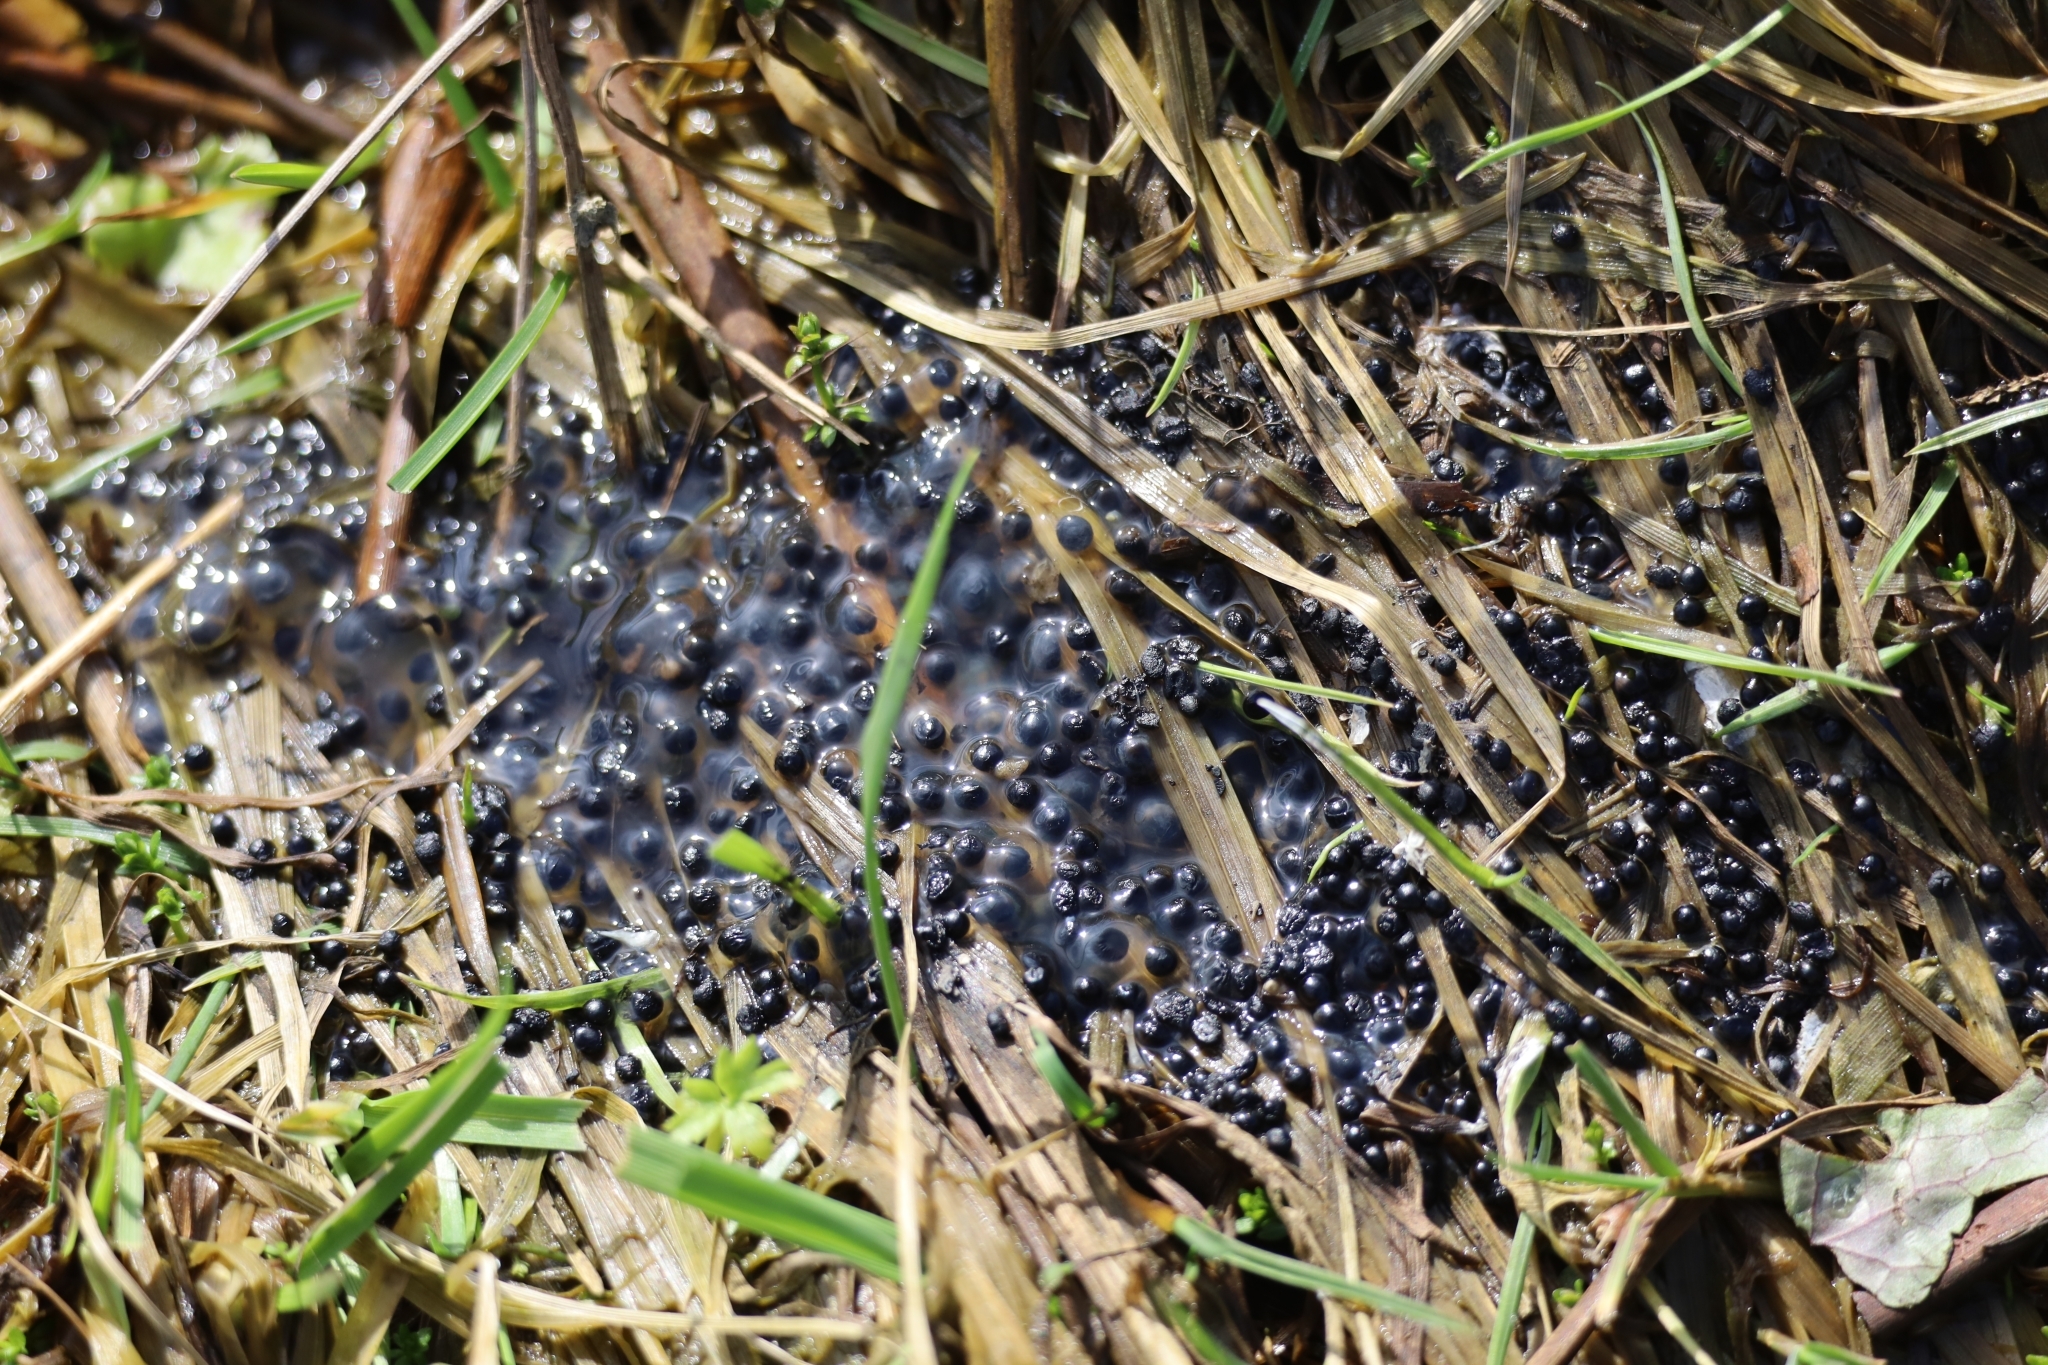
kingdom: Animalia
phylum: Chordata
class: Amphibia
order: Anura
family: Bufonidae
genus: Bufo
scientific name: Bufo bufo
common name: Common toad
